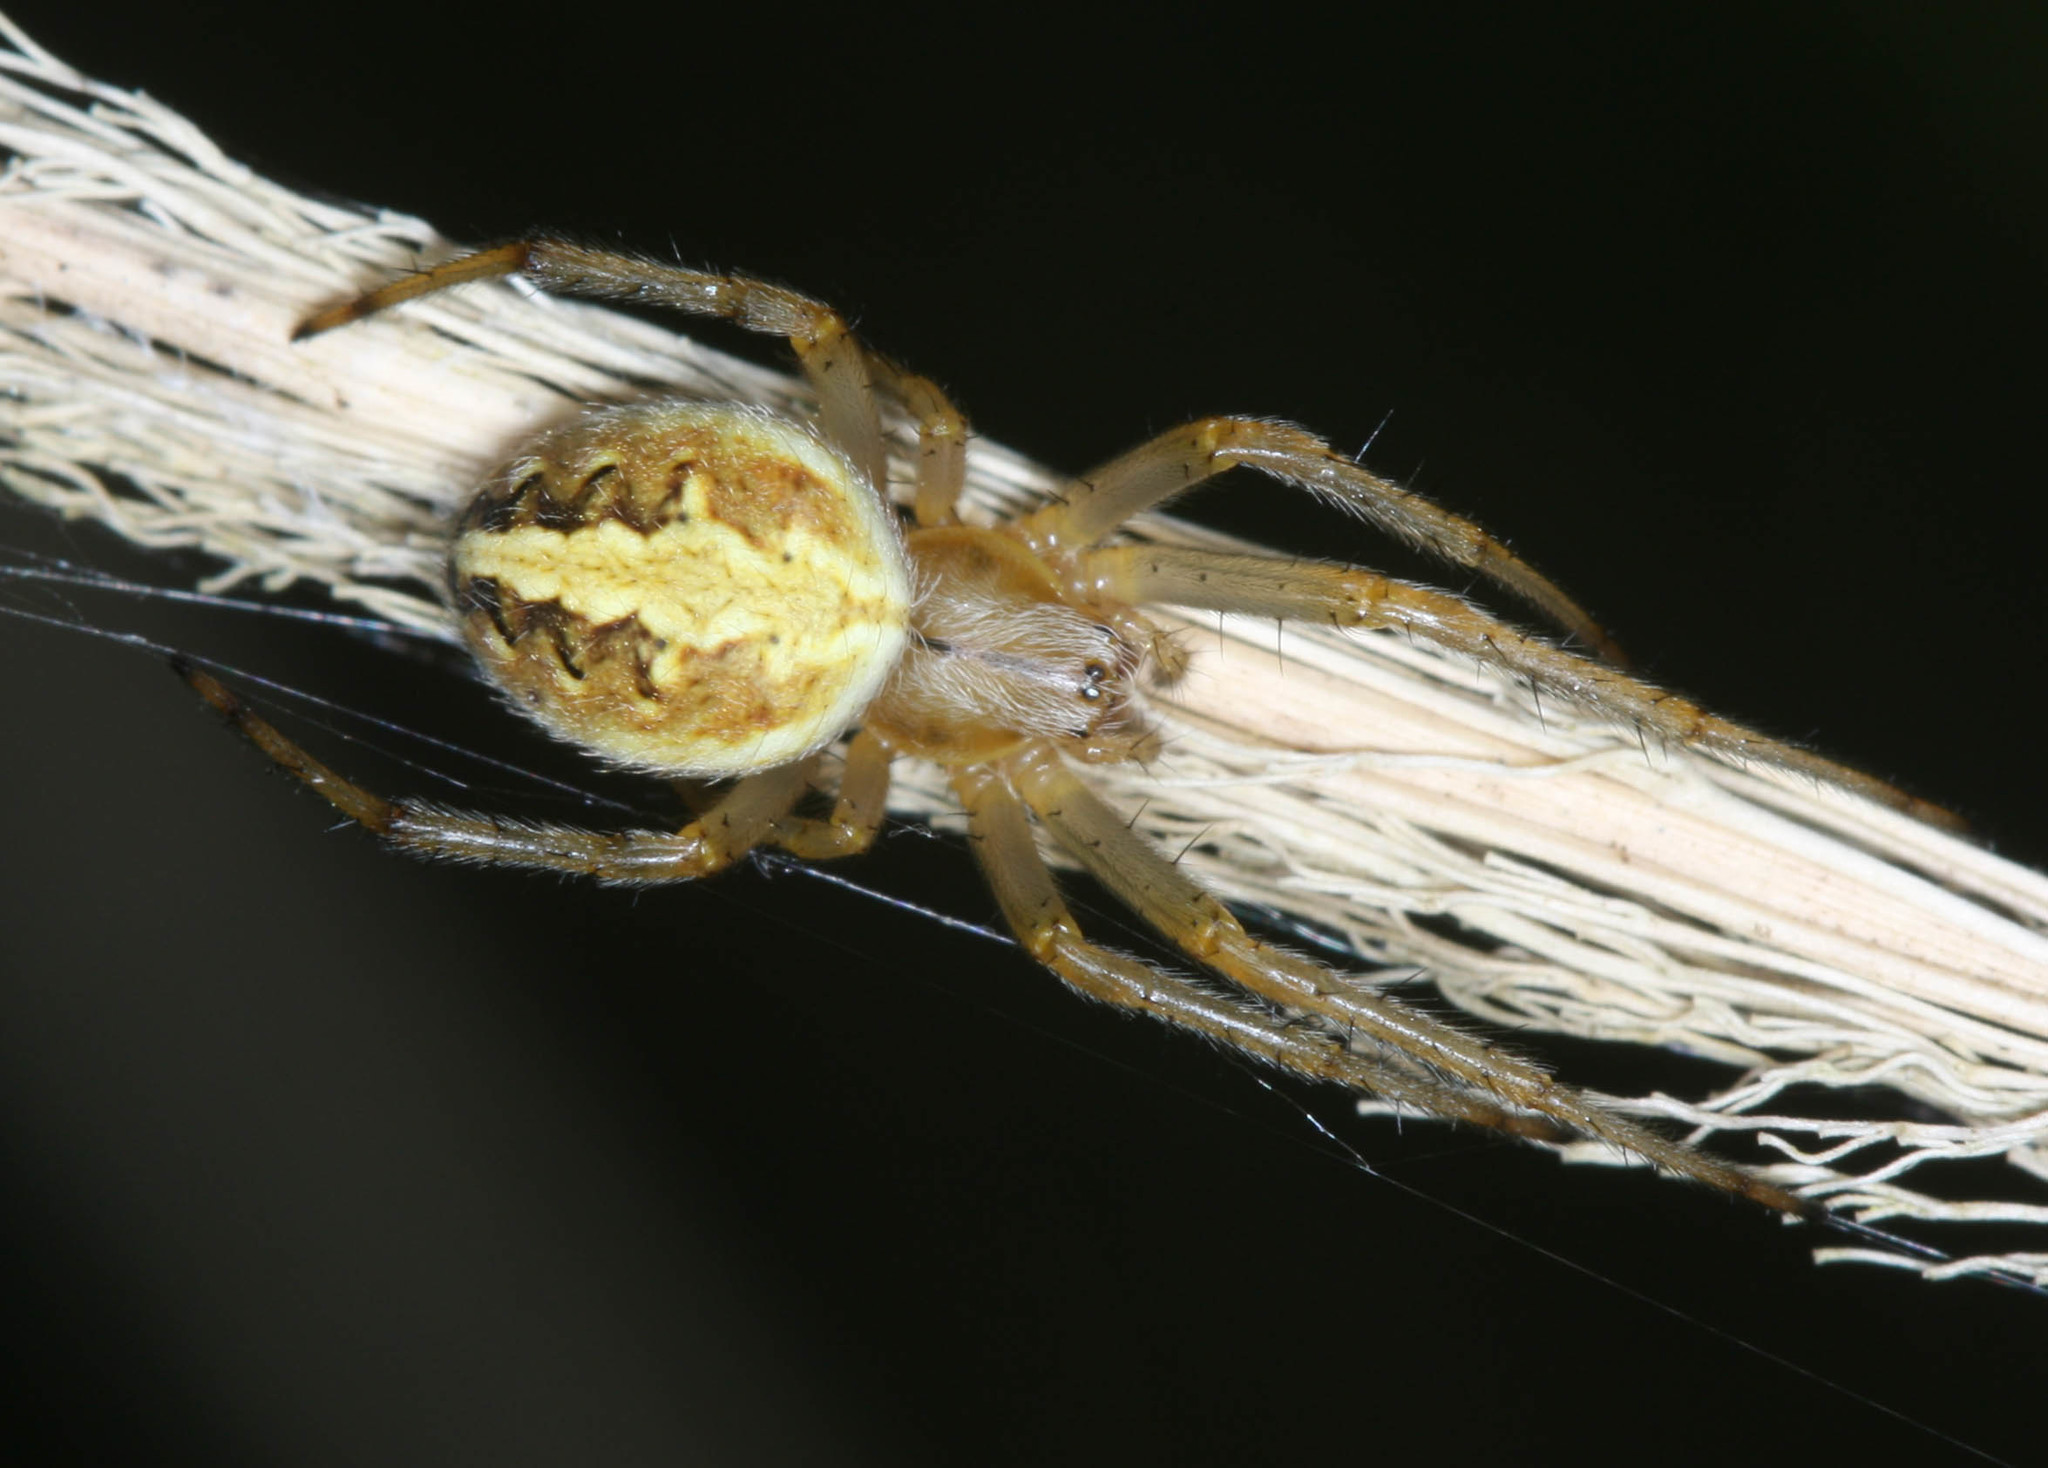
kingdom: Animalia
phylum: Arthropoda
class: Arachnida
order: Araneae
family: Araneidae
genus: Neoscona
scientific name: Neoscona theisi
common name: Spider
